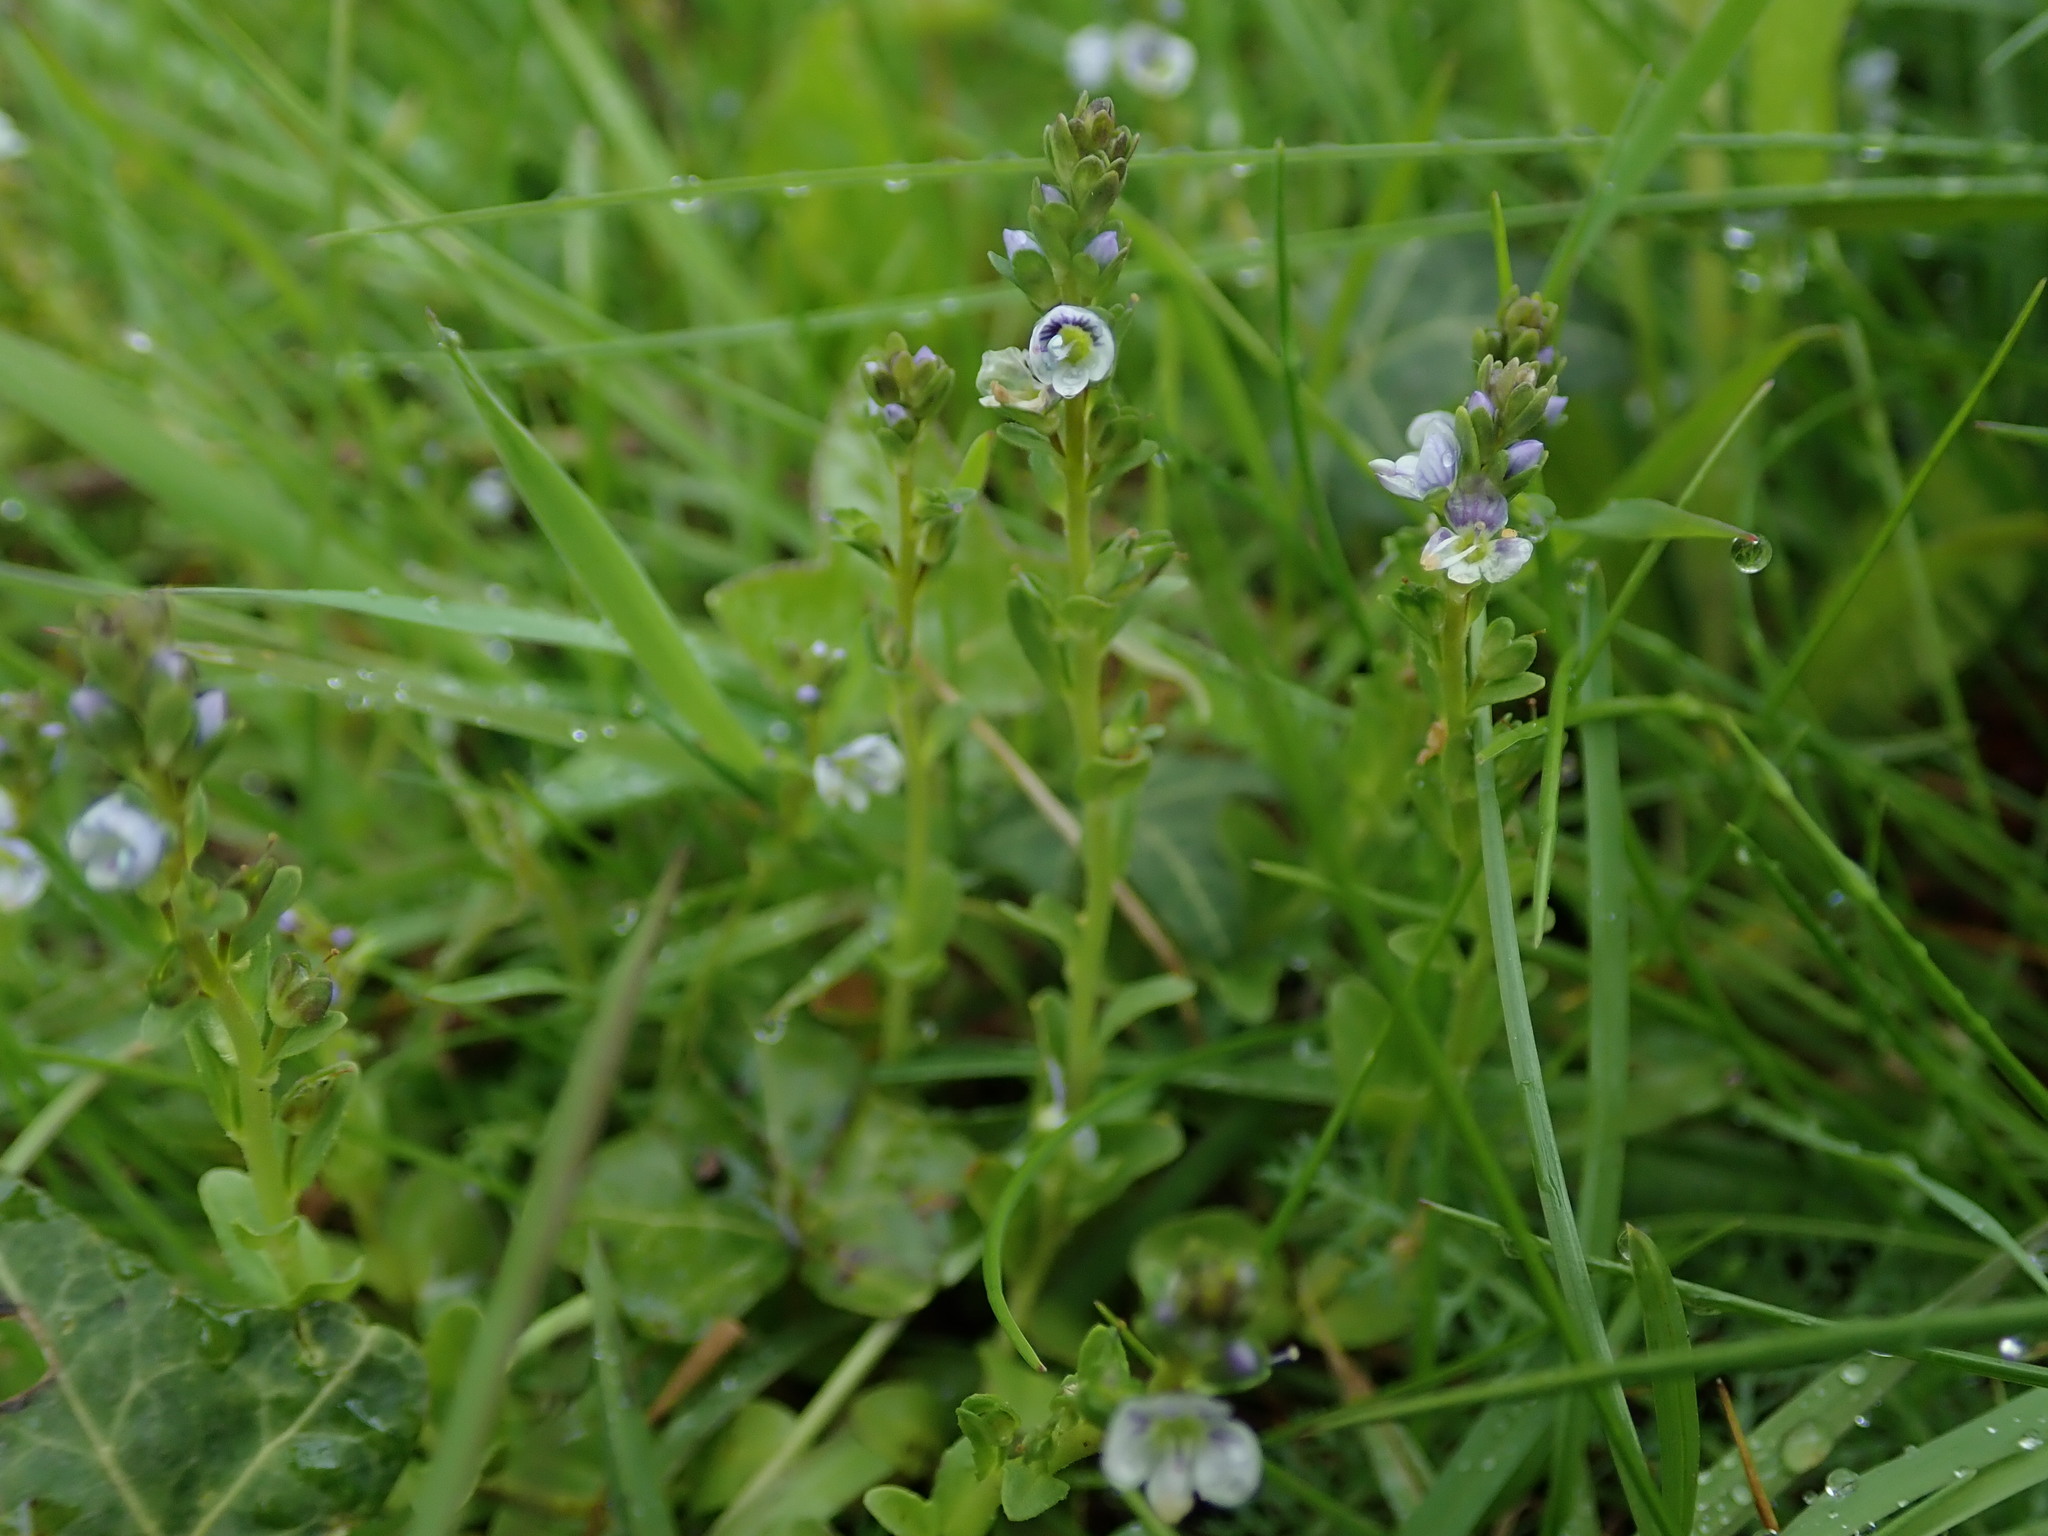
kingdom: Plantae
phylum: Tracheophyta
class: Magnoliopsida
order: Lamiales
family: Plantaginaceae
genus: Veronica
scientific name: Veronica serpyllifolia
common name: Thyme-leaved speedwell
